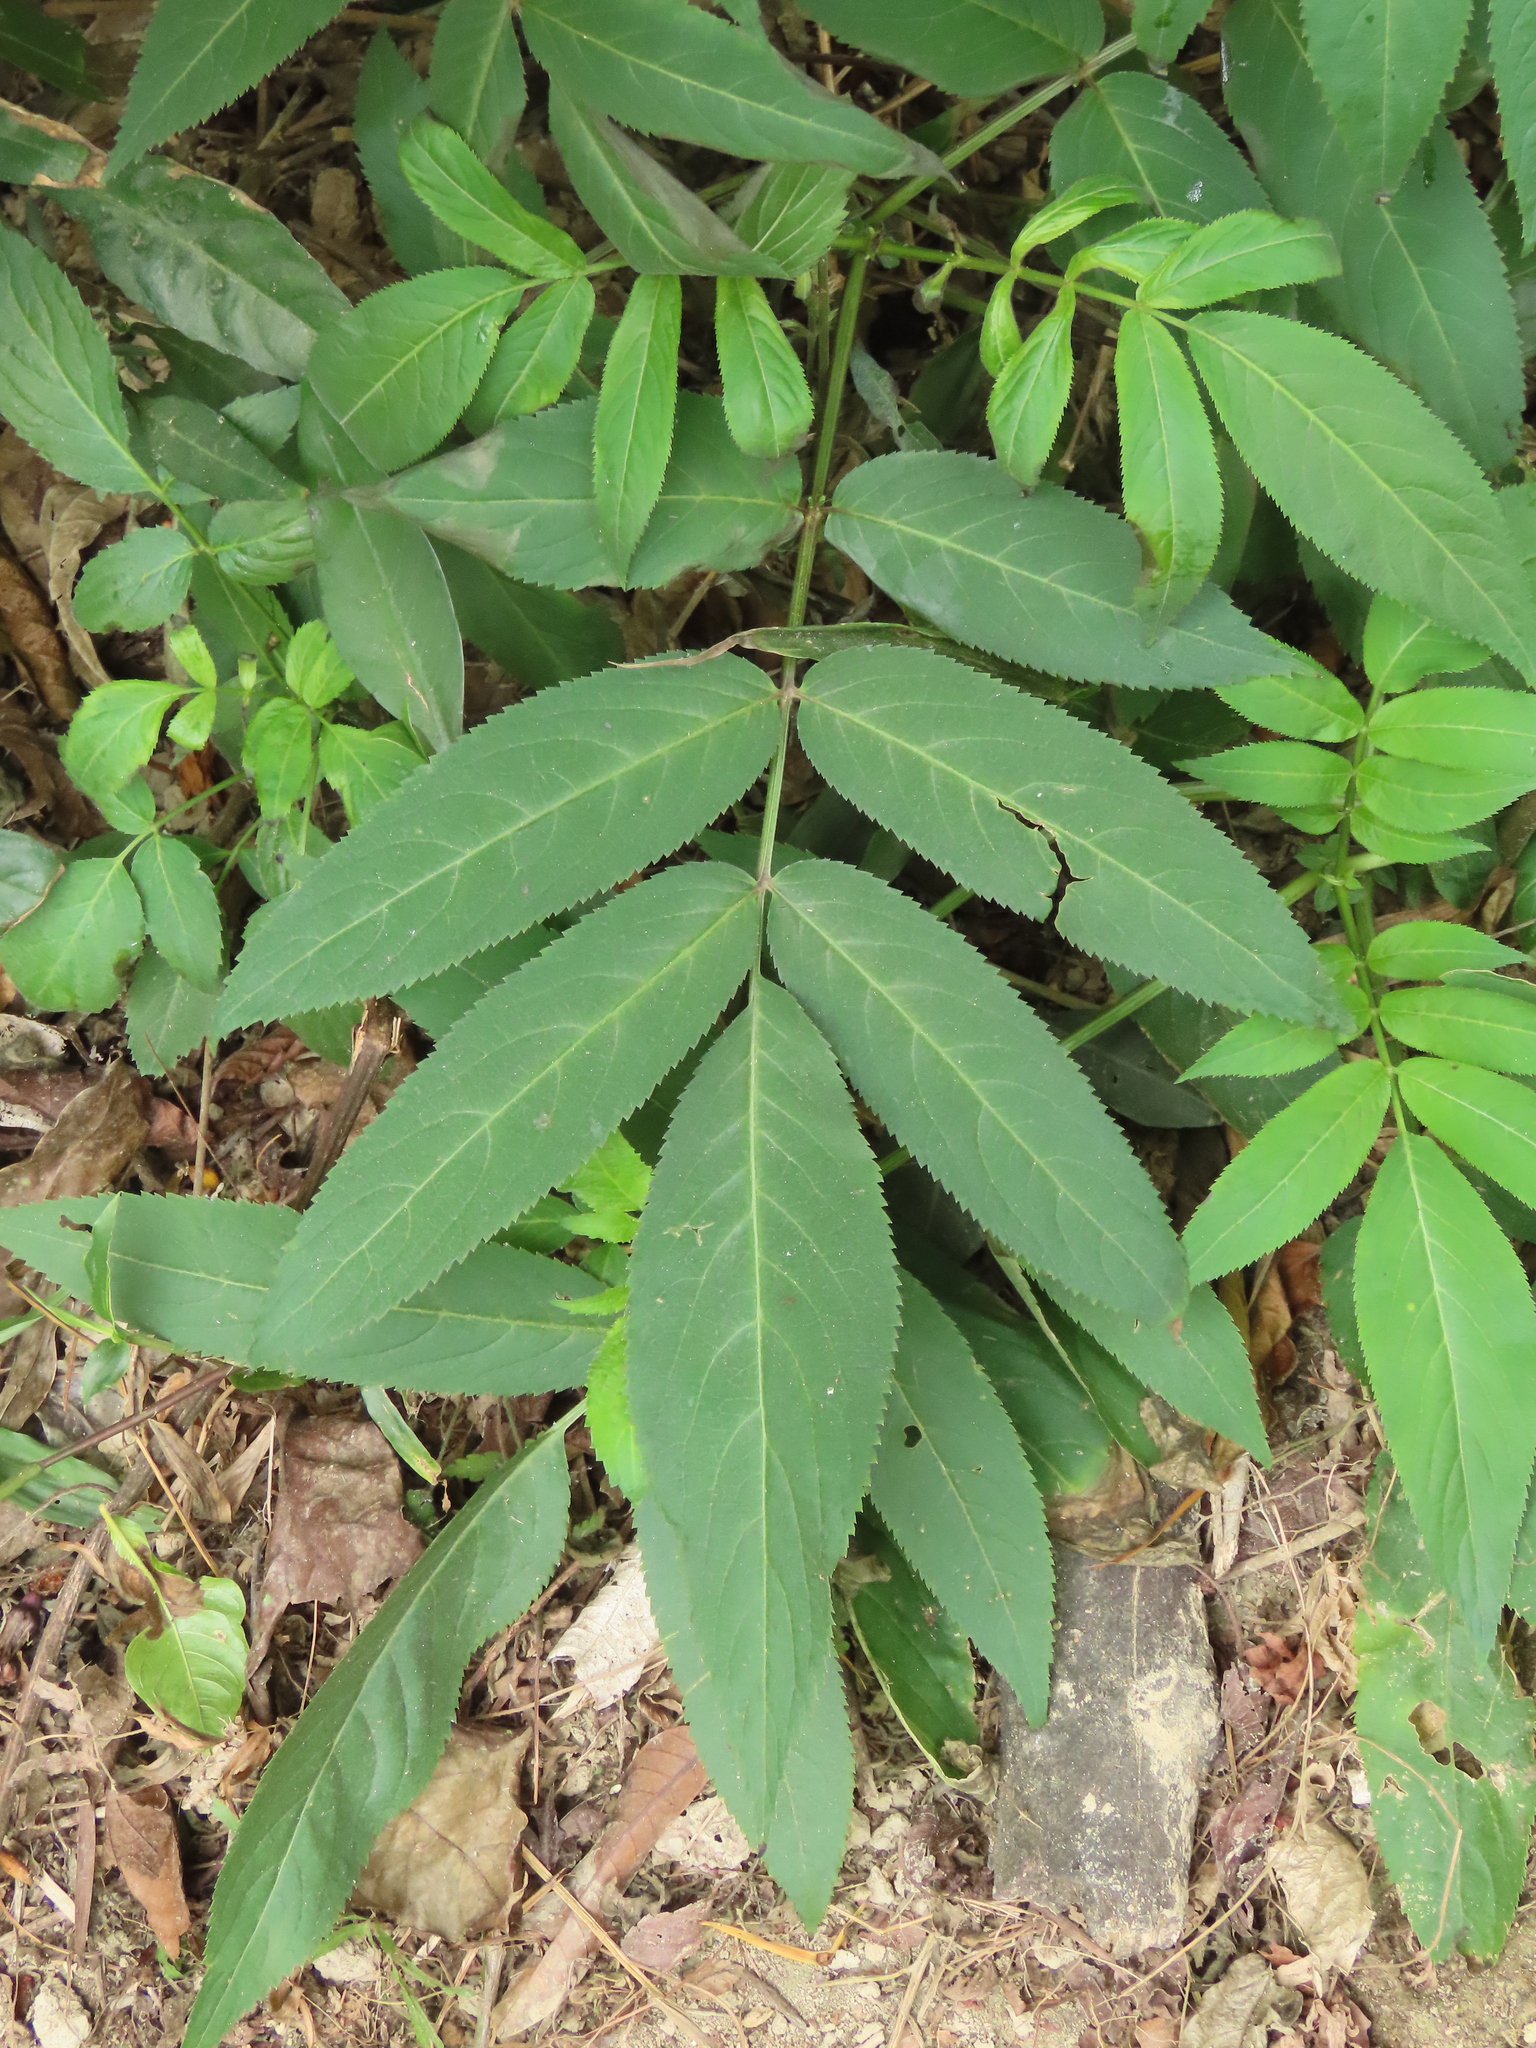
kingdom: Plantae
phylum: Tracheophyta
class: Magnoliopsida
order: Dipsacales
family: Viburnaceae
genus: Sambucus
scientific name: Sambucus javanica
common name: Chinese elder
